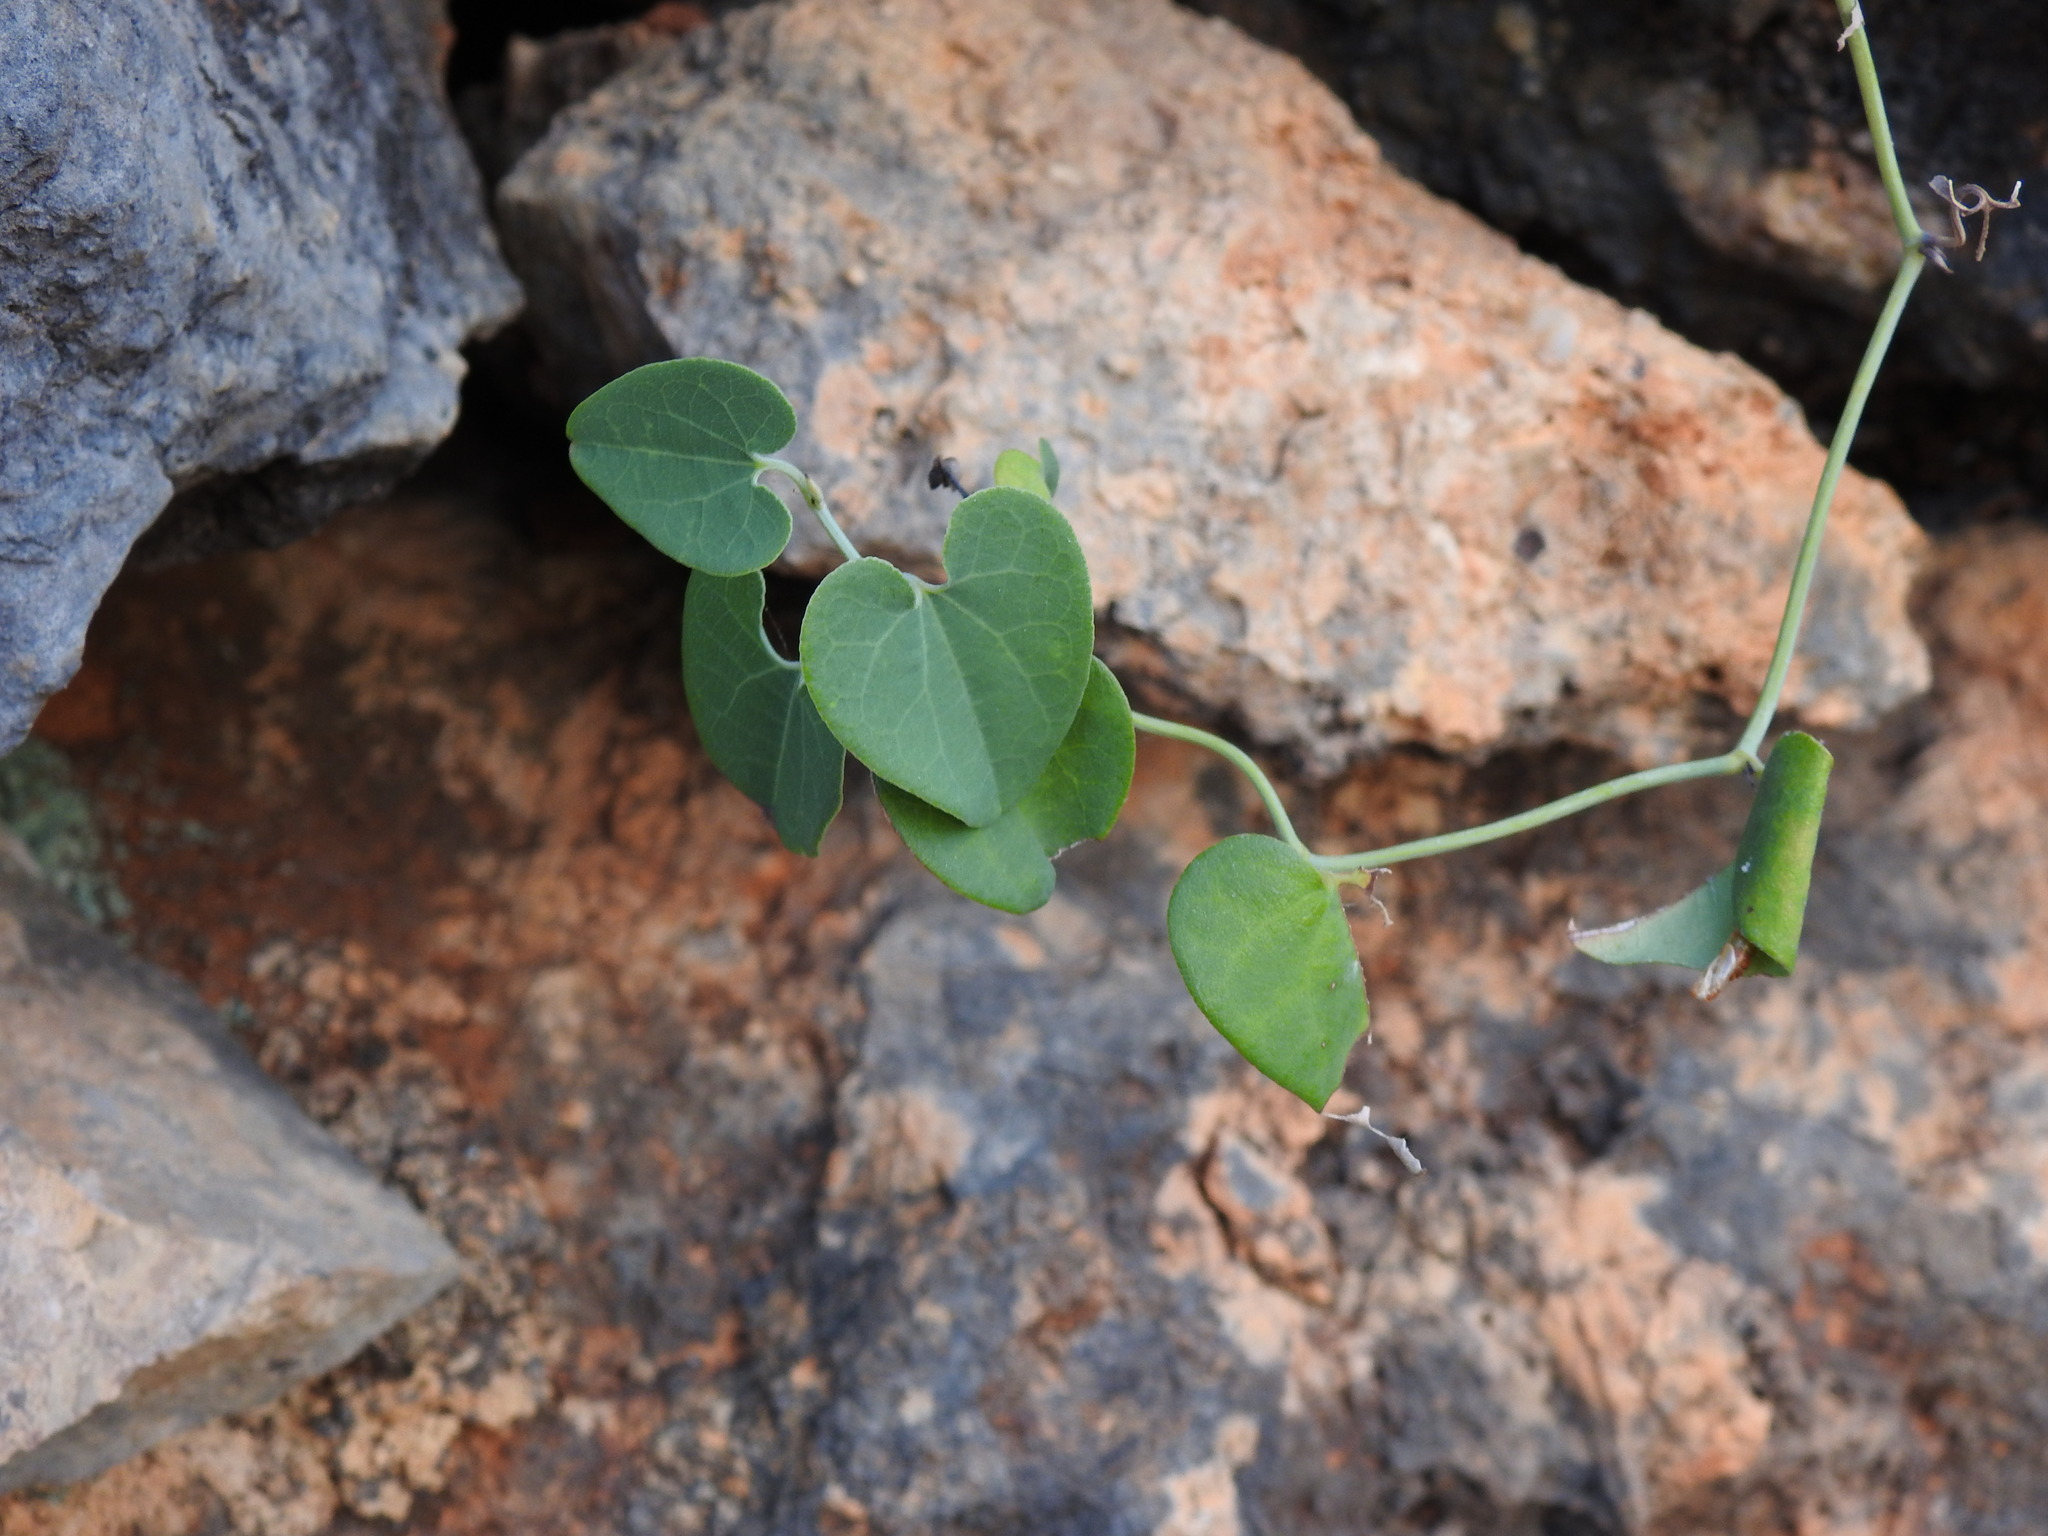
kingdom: Plantae
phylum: Tracheophyta
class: Magnoliopsida
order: Piperales
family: Aristolochiaceae
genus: Aristolochia
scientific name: Aristolochia baetica
